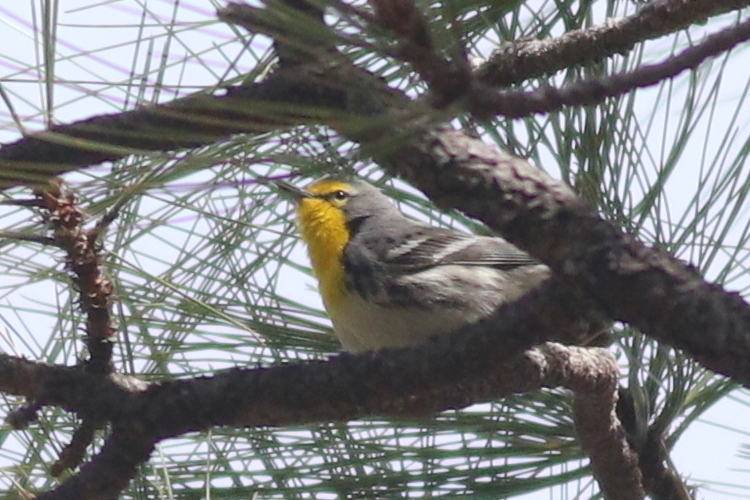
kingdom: Animalia
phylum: Chordata
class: Aves
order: Passeriformes
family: Parulidae
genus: Setophaga
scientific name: Setophaga graciae
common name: Grace's warbler
